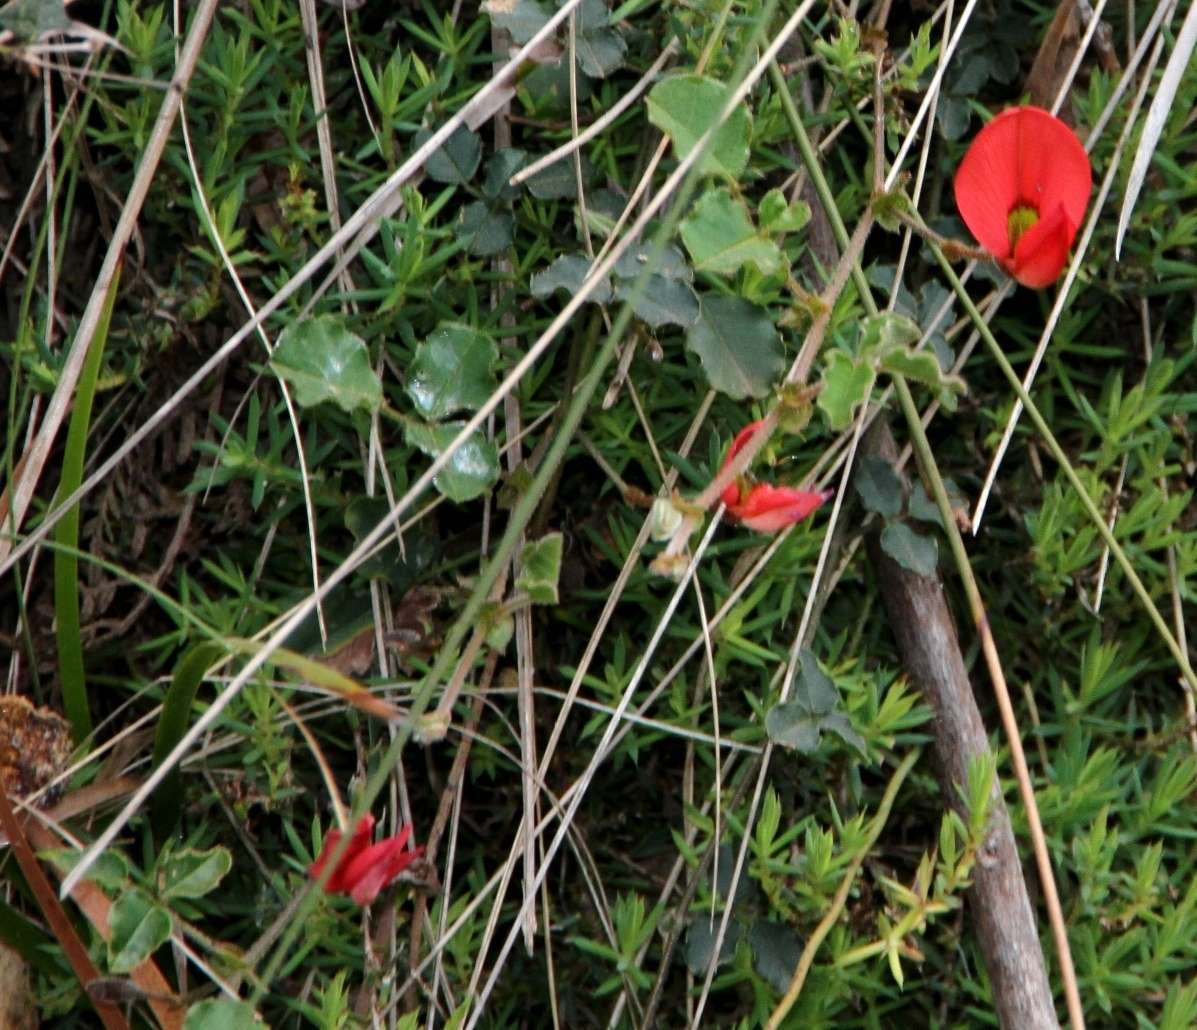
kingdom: Plantae
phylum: Tracheophyta
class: Magnoliopsida
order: Fabales
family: Fabaceae
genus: Kennedia
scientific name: Kennedia prostrata
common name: Running-postman
